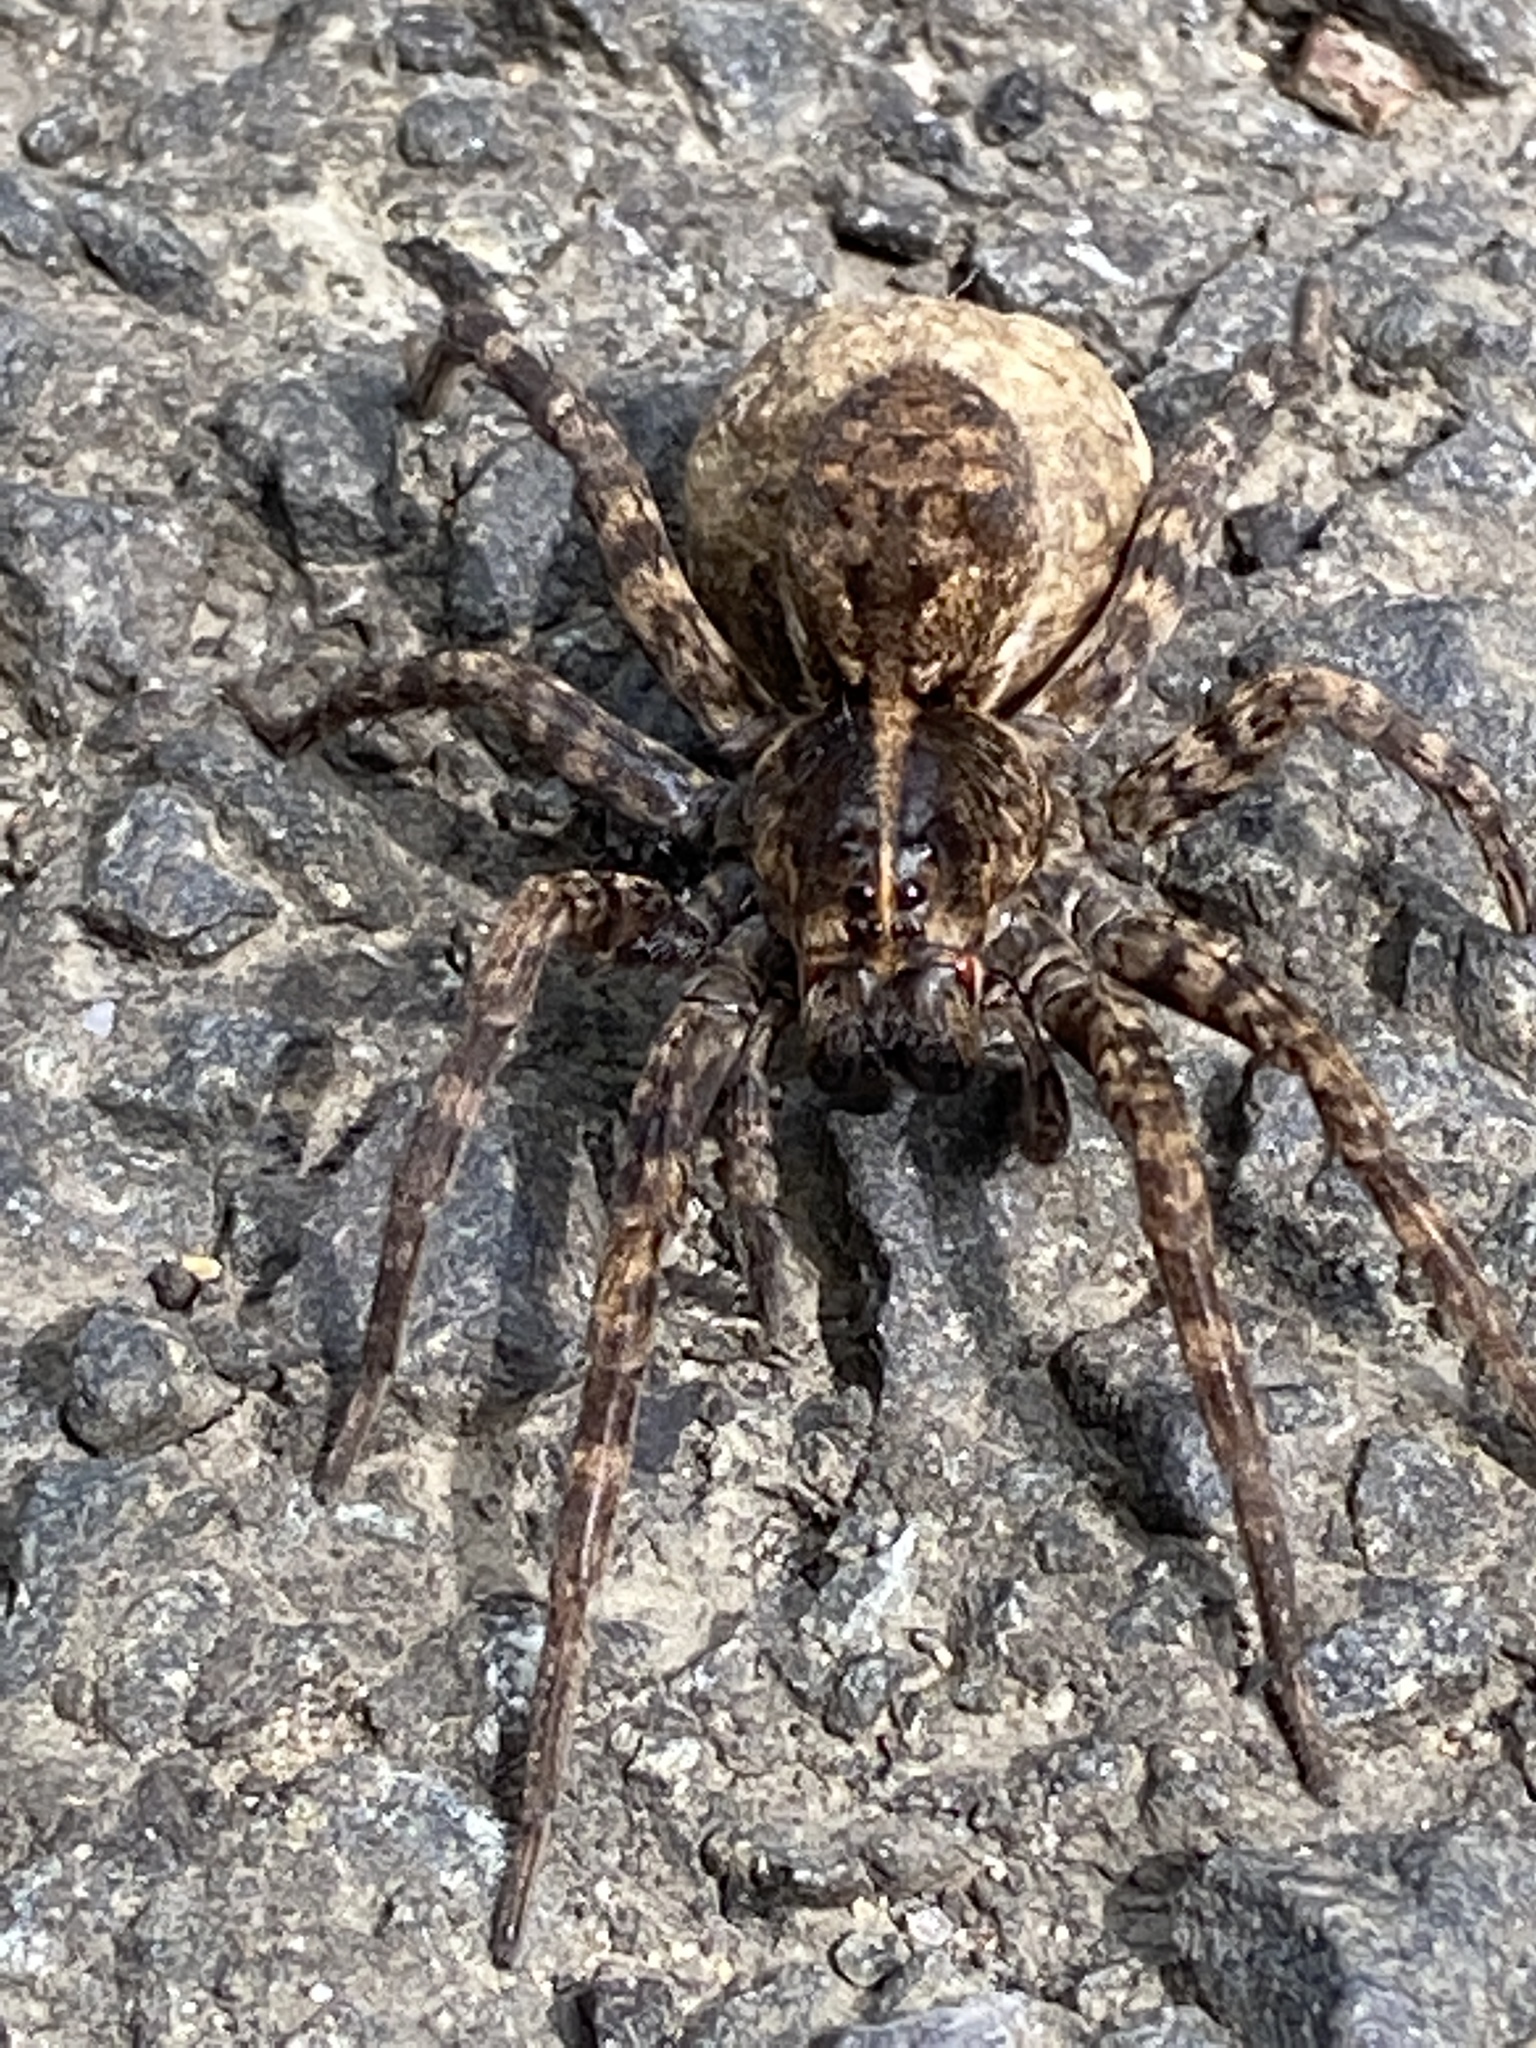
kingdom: Animalia
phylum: Arthropoda
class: Arachnida
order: Araneae
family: Lycosidae
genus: Tigrosa
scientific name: Tigrosa aspersa
